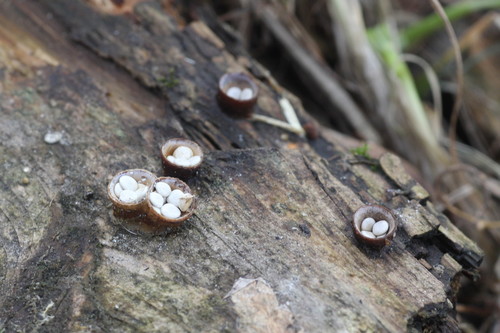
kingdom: Fungi
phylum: Basidiomycota
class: Agaricomycetes
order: Agaricales
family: Nidulariaceae
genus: Crucibulum
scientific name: Crucibulum laeve
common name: Common bird's nest
